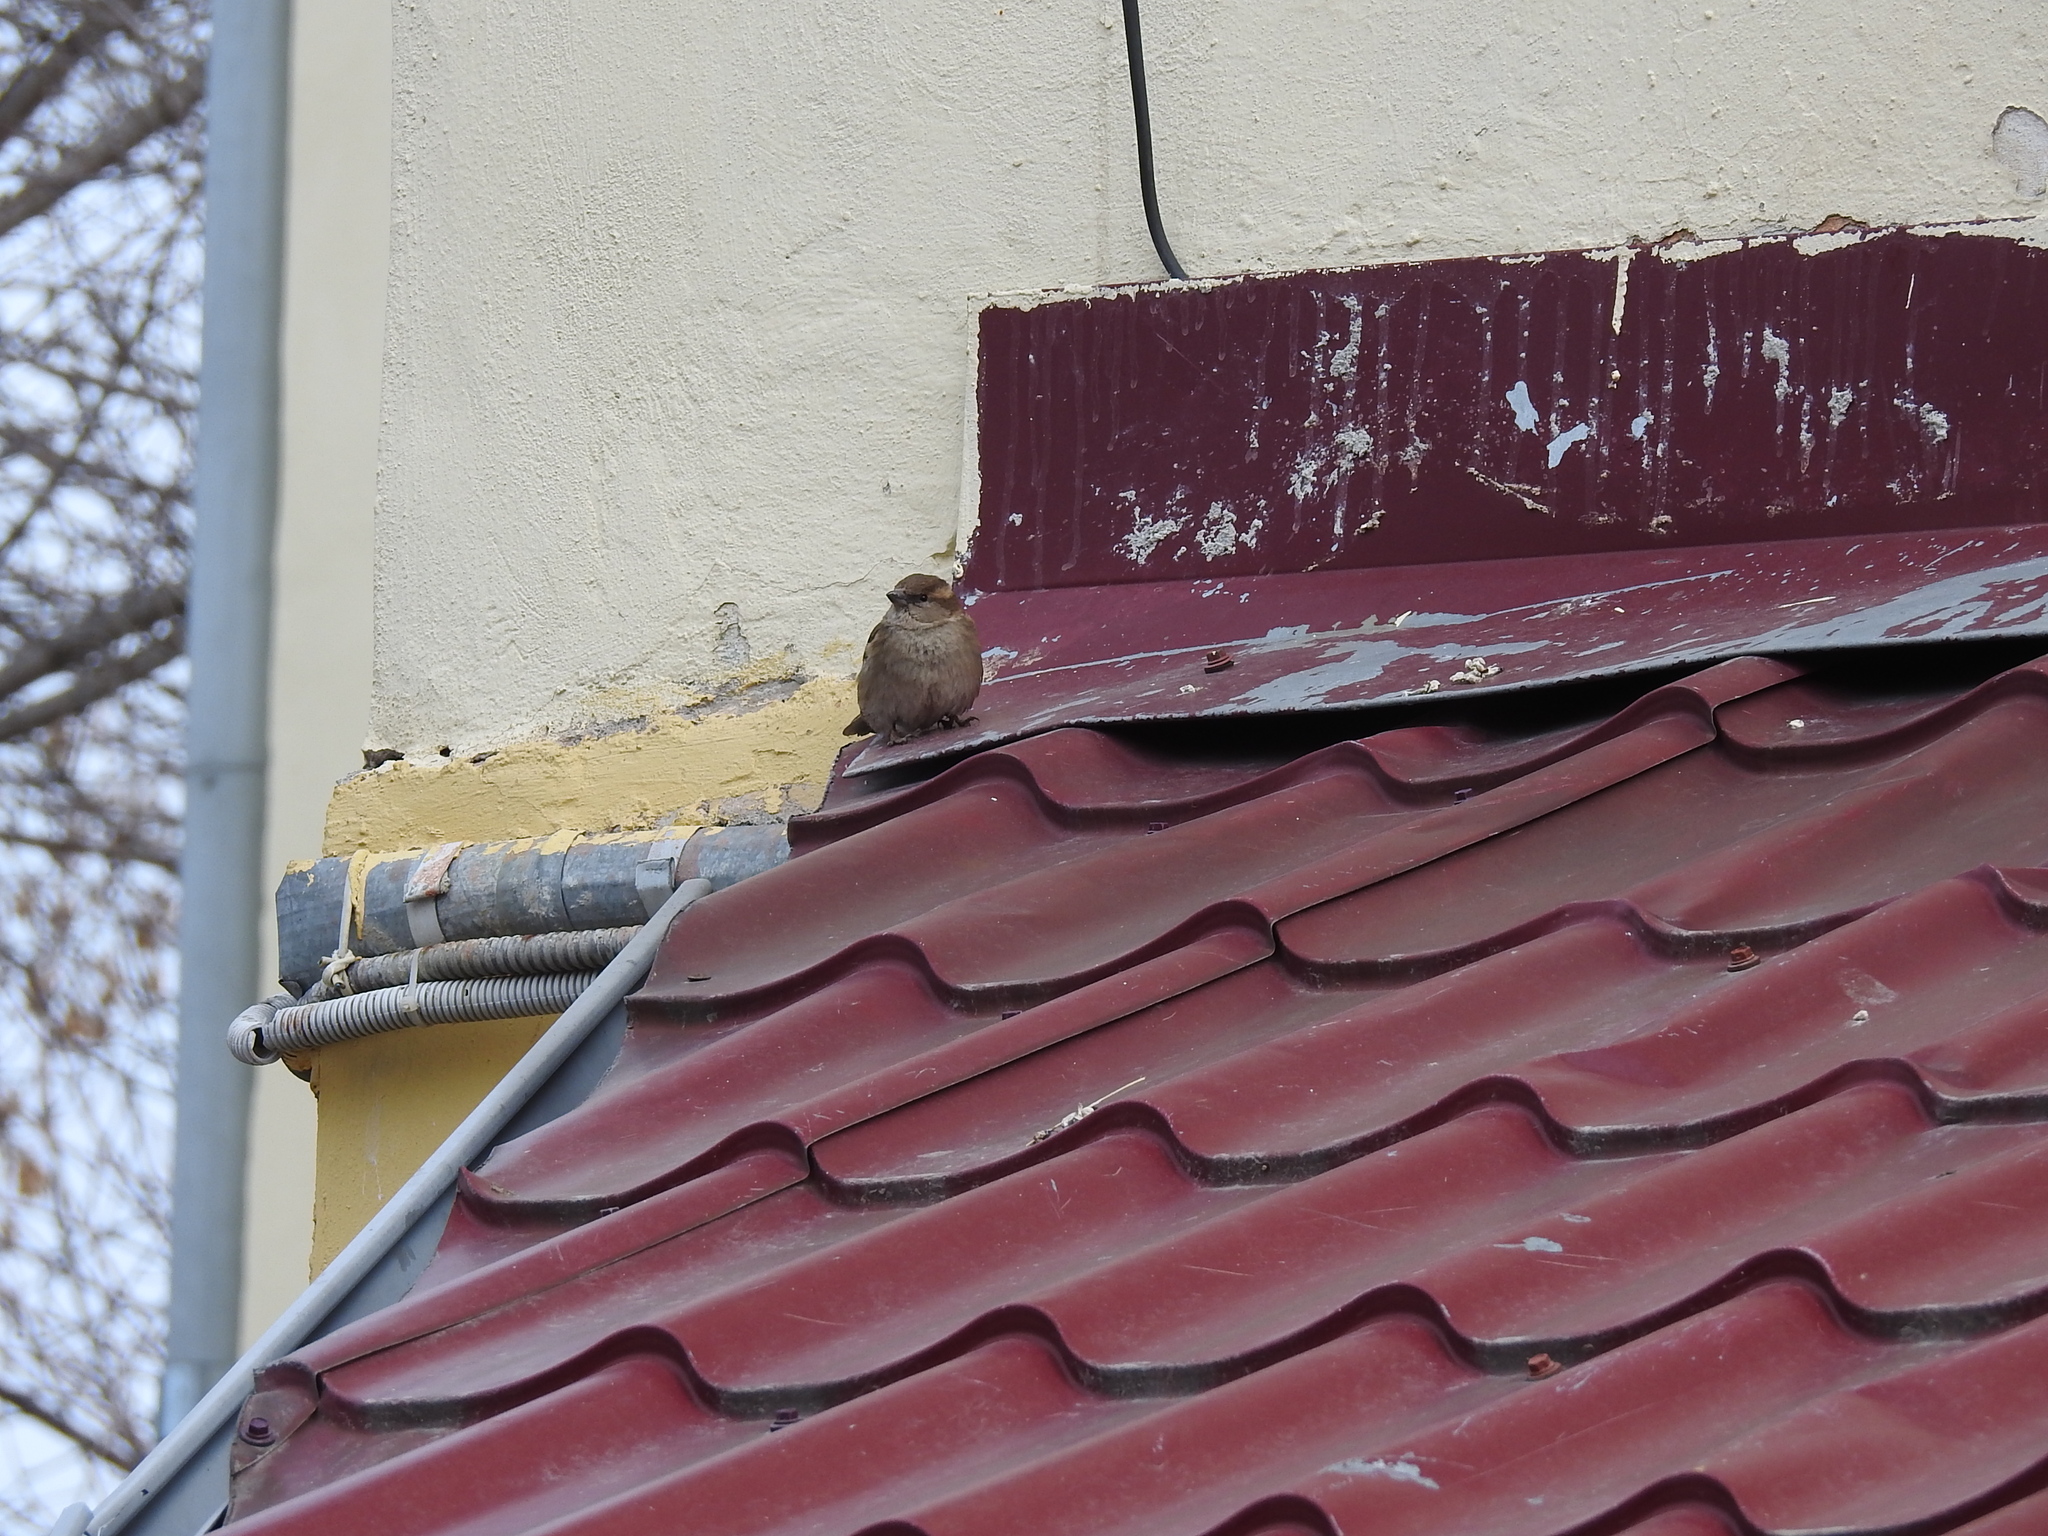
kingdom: Animalia
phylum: Chordata
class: Aves
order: Passeriformes
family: Passeridae
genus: Passer
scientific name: Passer domesticus
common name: House sparrow
